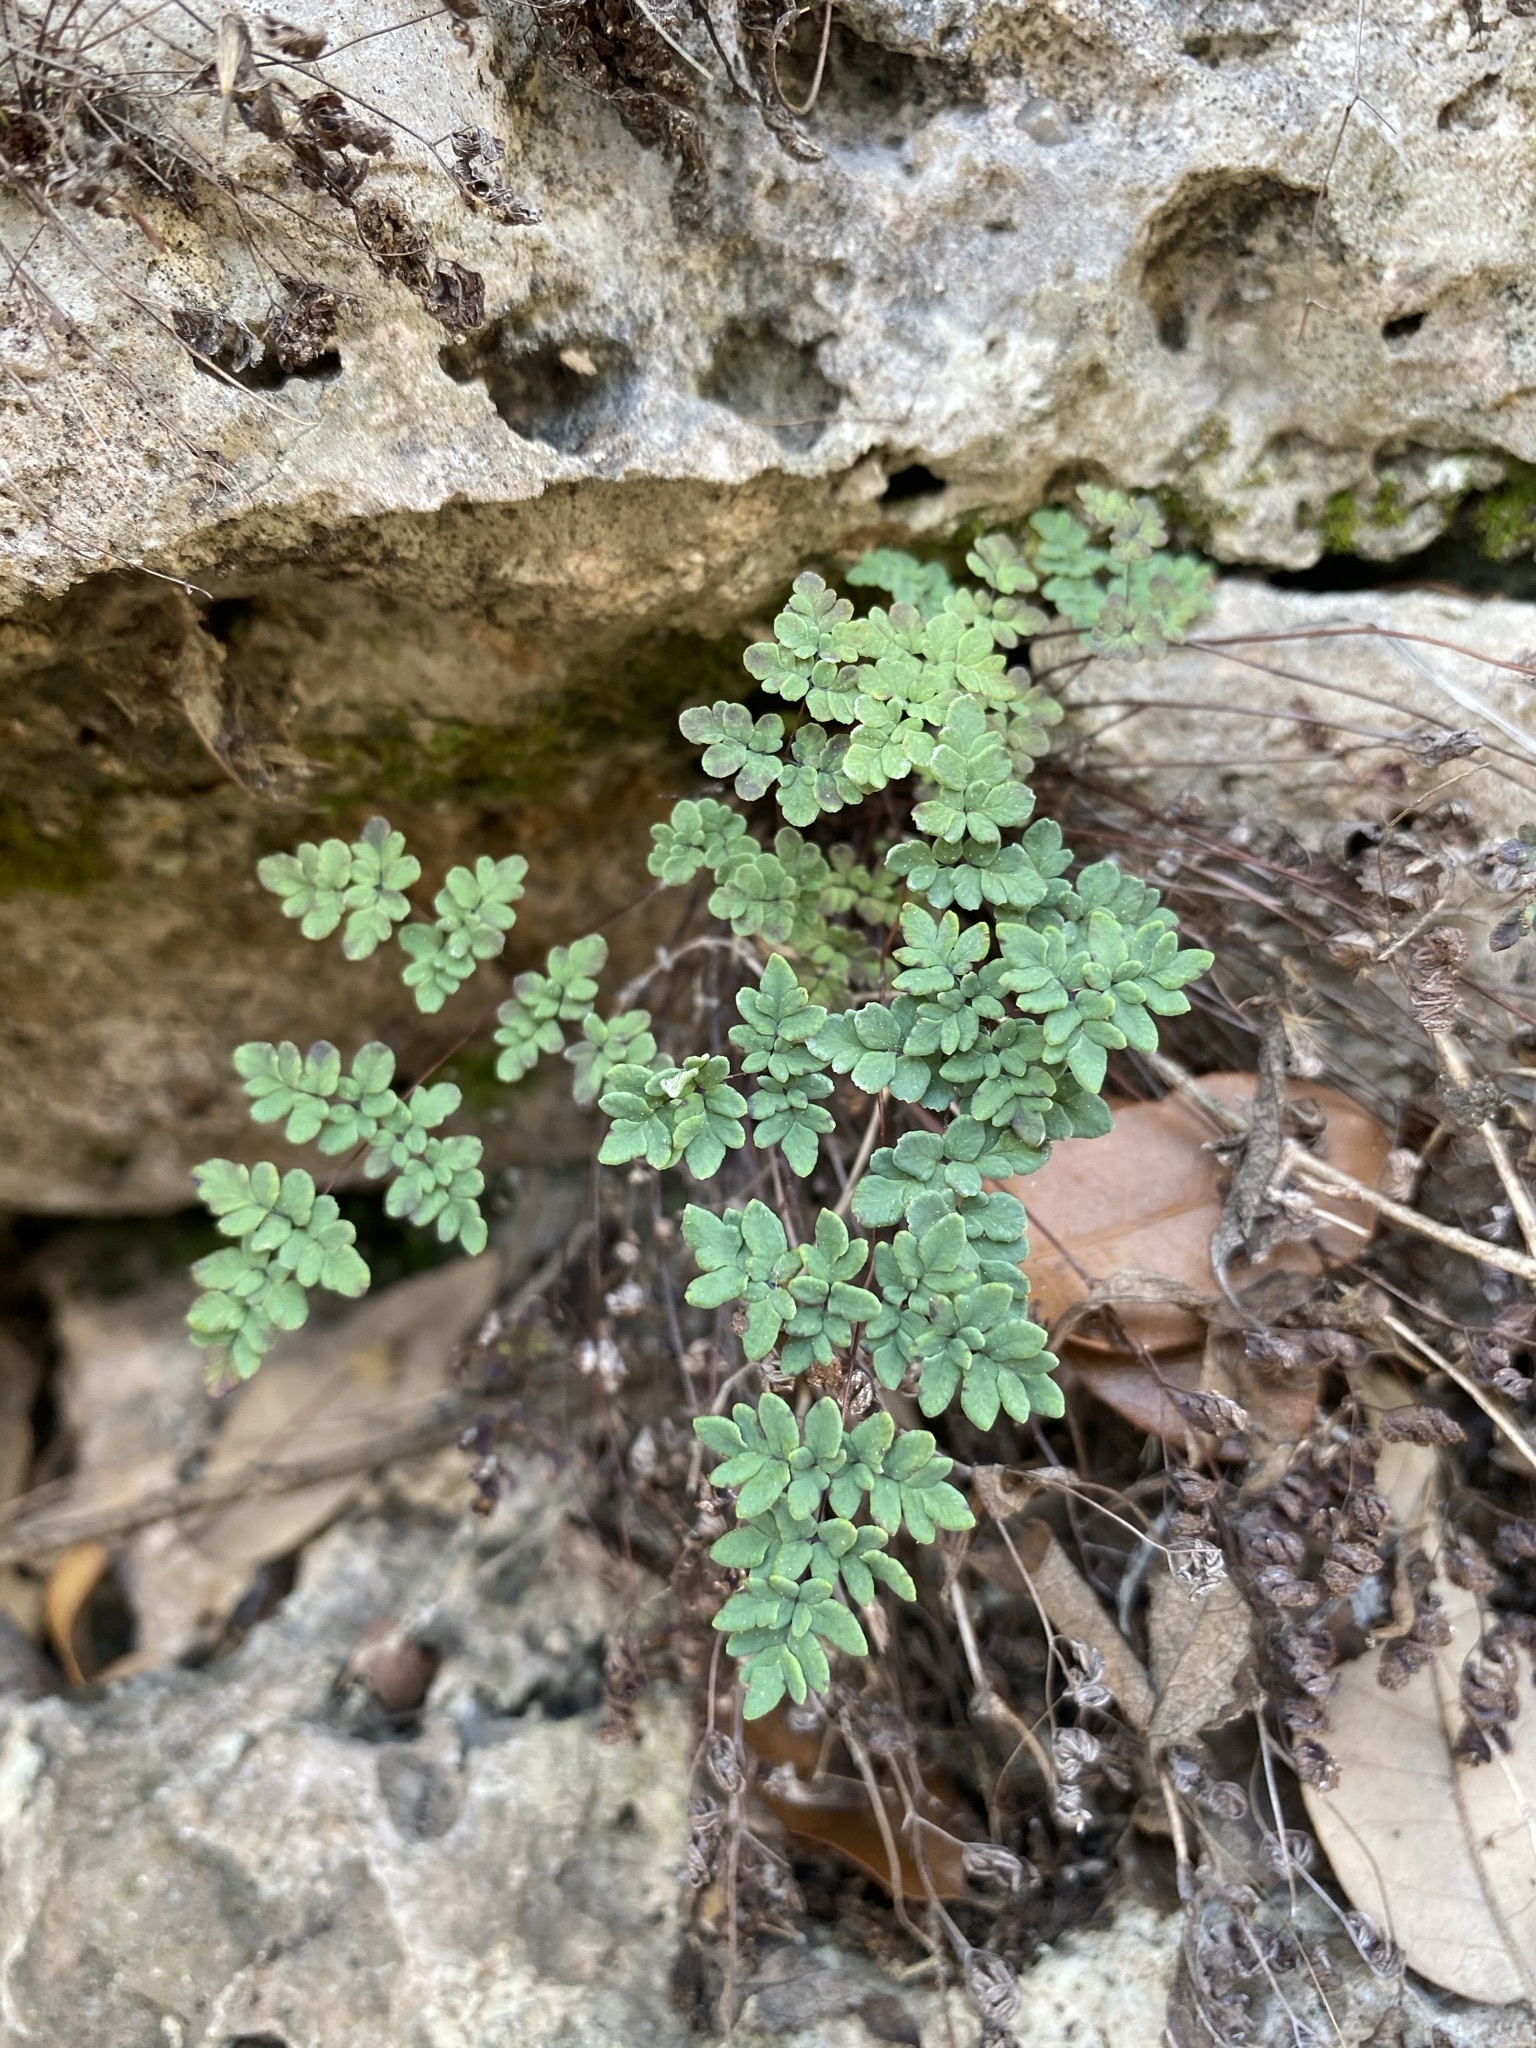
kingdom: Plantae
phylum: Tracheophyta
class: Polypodiopsida
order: Polypodiales
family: Pteridaceae
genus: Argyrochosma
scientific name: Argyrochosma dealbata
